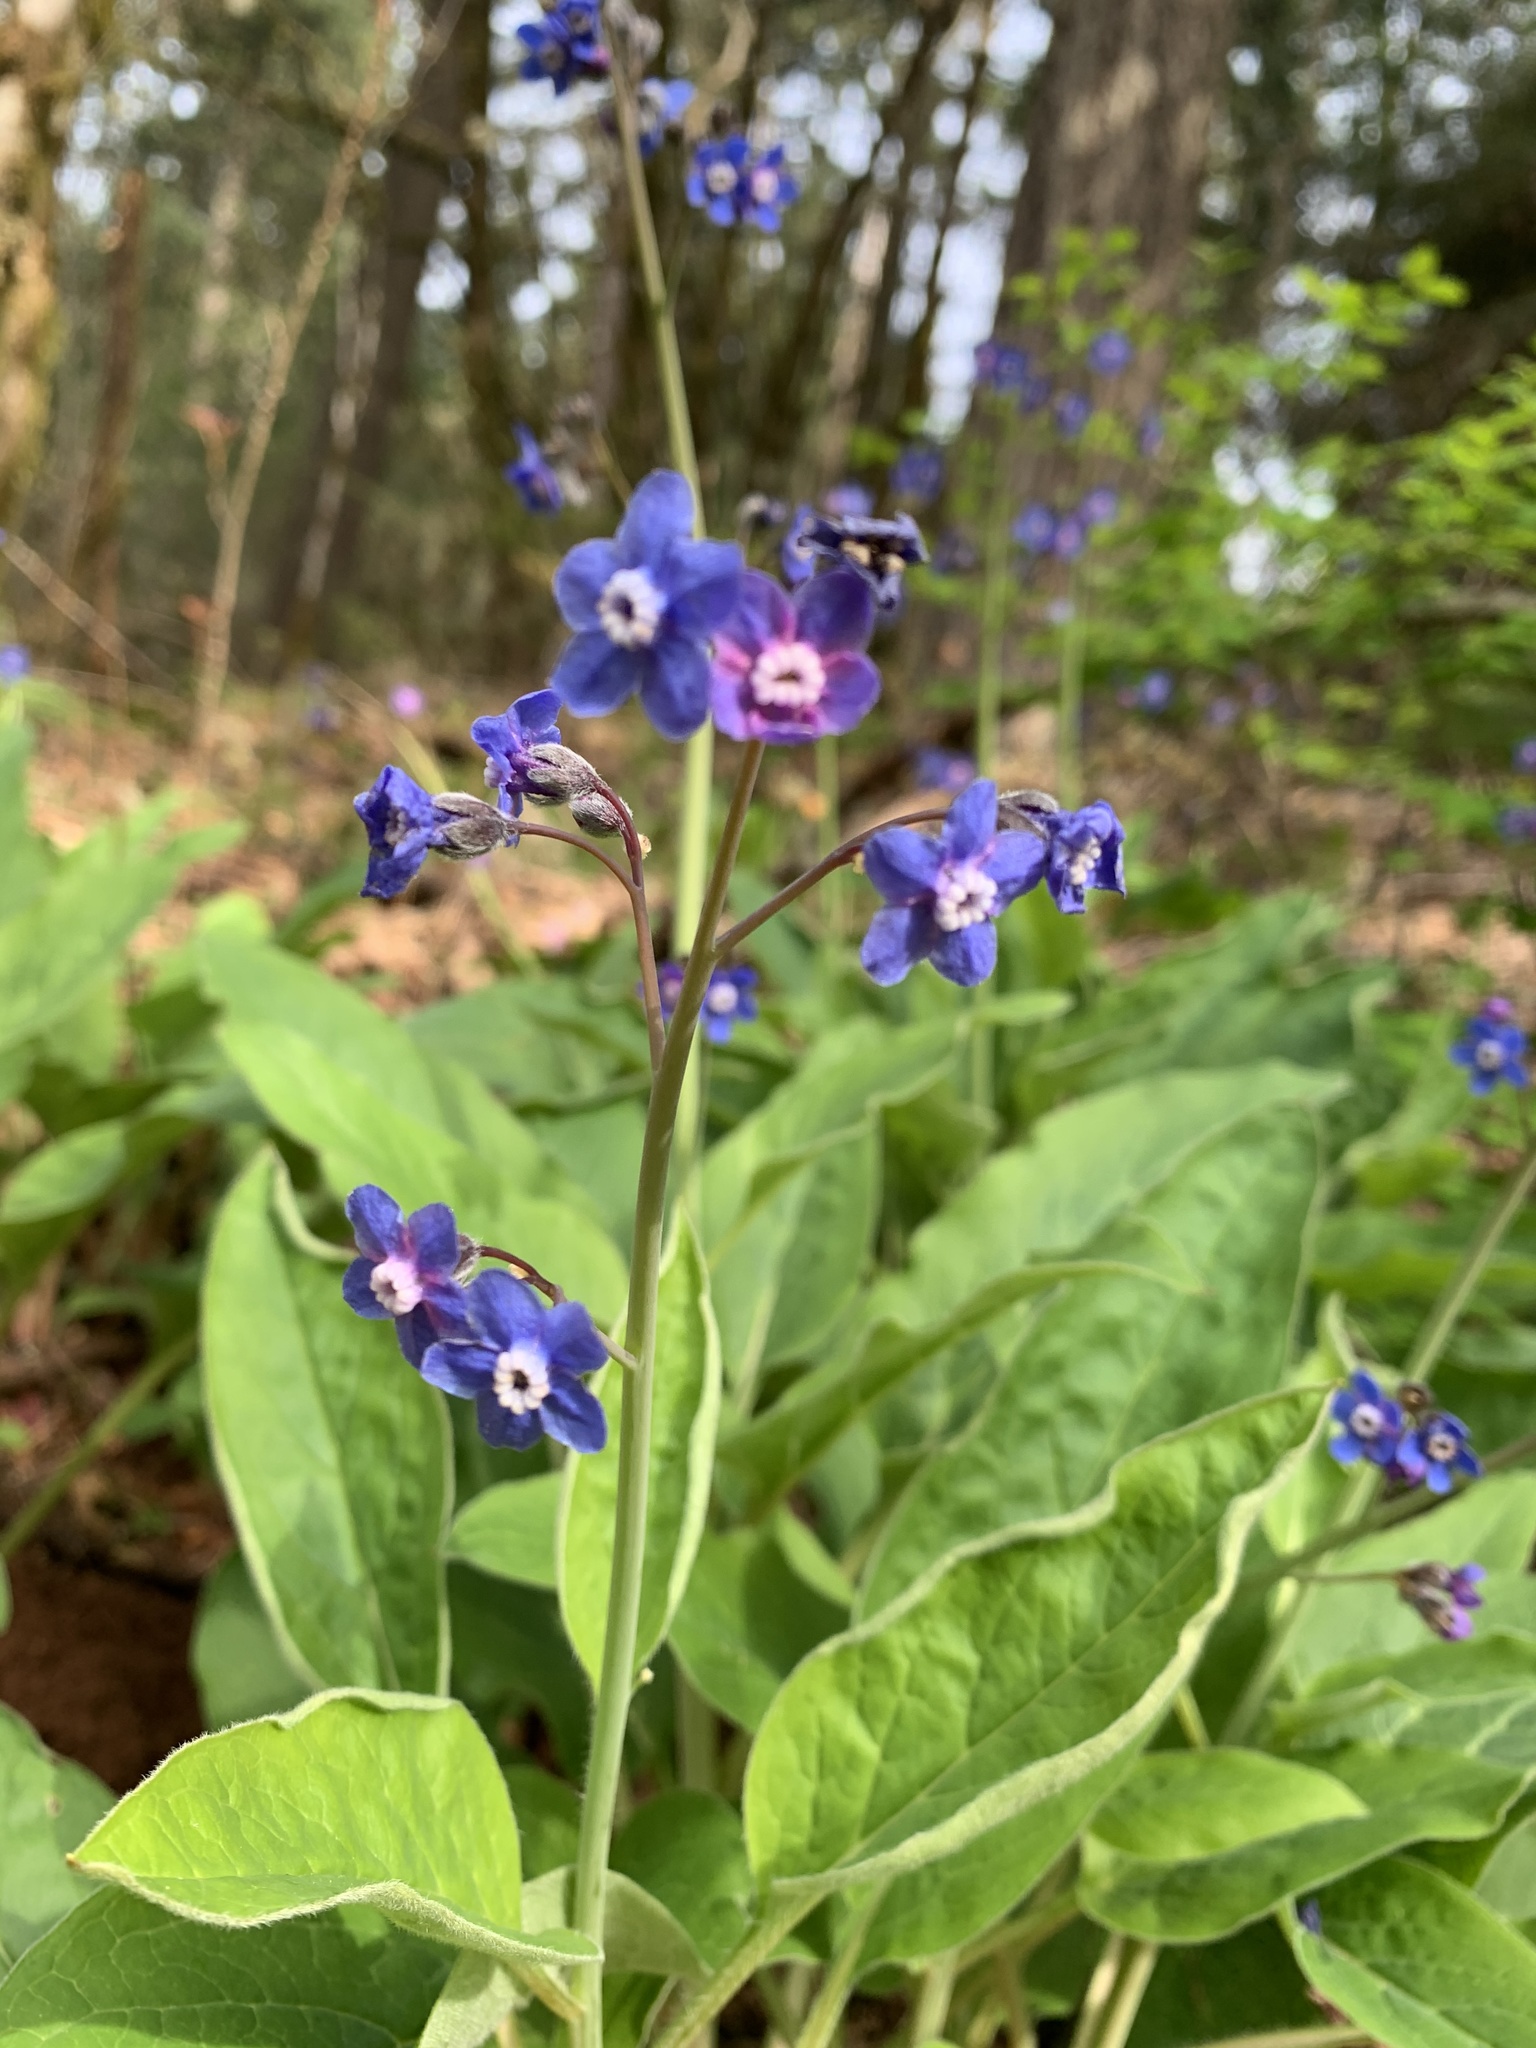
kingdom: Plantae
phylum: Tracheophyta
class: Magnoliopsida
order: Boraginales
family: Boraginaceae
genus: Adelinia
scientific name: Adelinia grande
